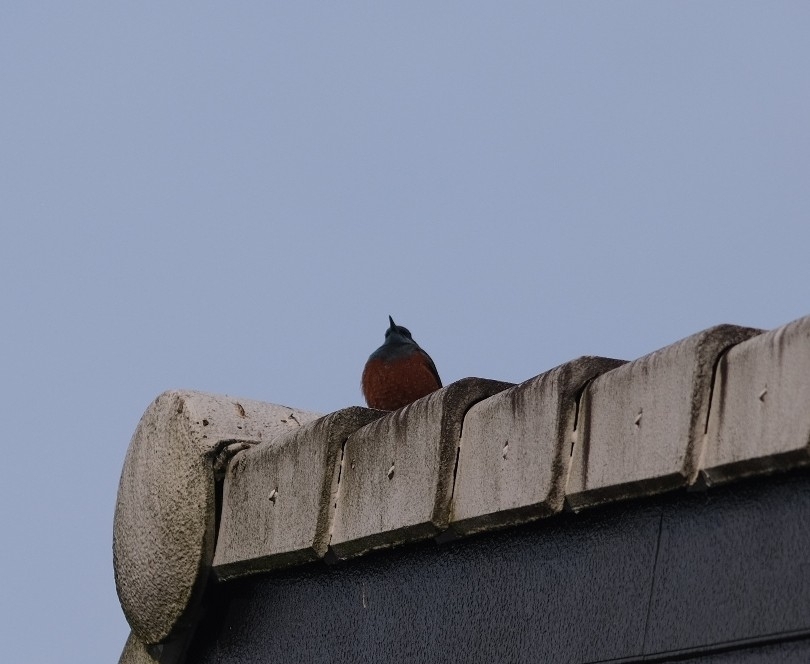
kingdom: Animalia
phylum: Chordata
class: Aves
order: Passeriformes
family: Muscicapidae
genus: Monticola
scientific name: Monticola solitarius
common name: Blue rock thrush
